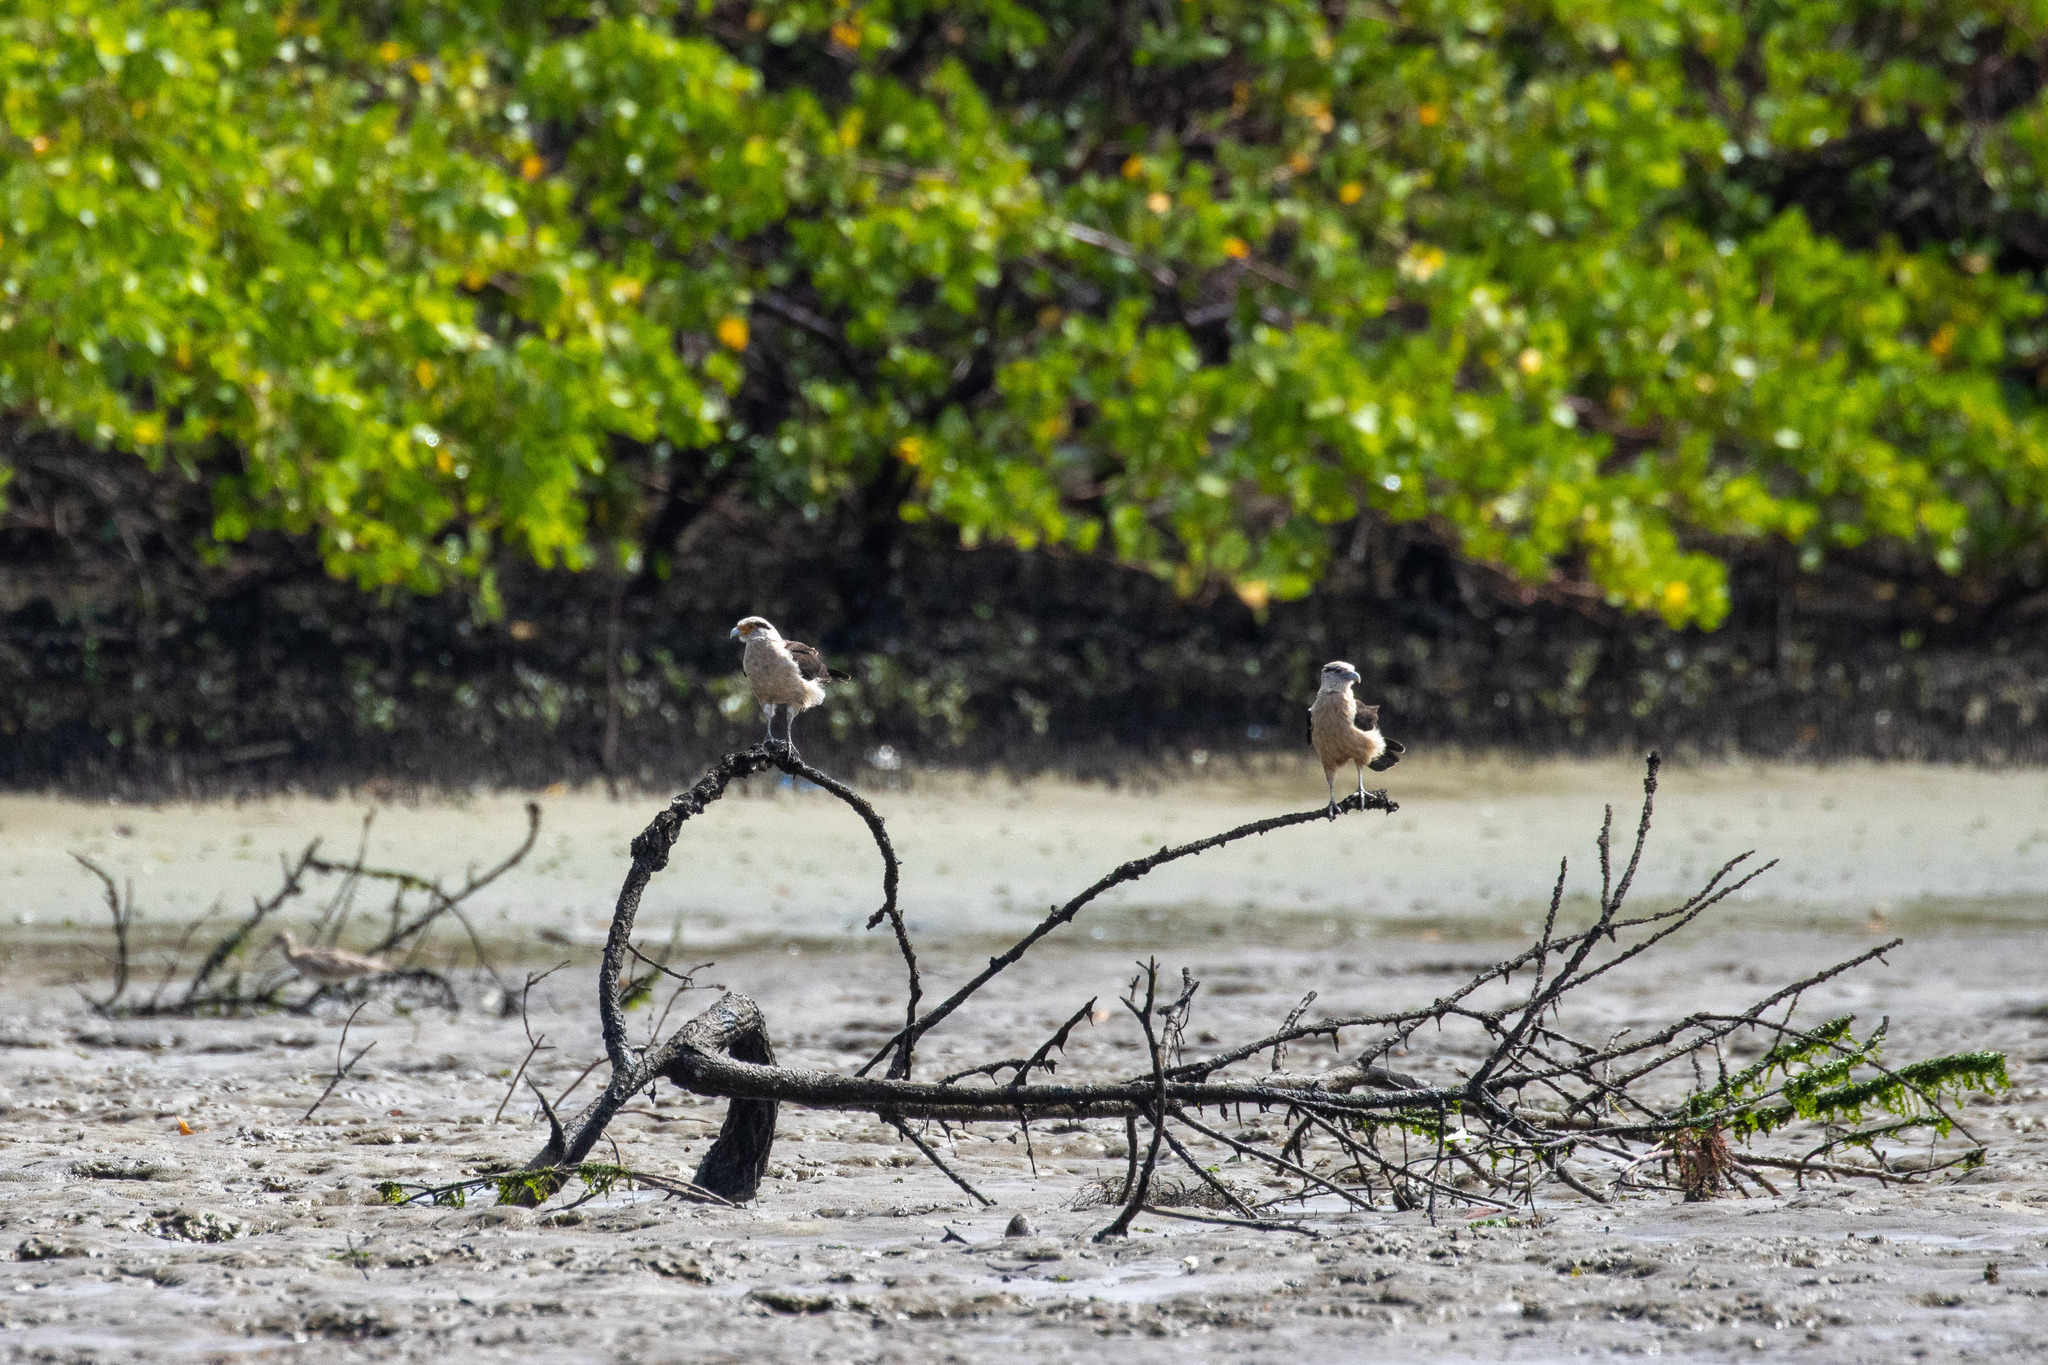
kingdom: Animalia
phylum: Chordata
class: Aves
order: Falconiformes
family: Falconidae
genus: Daptrius
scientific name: Daptrius
